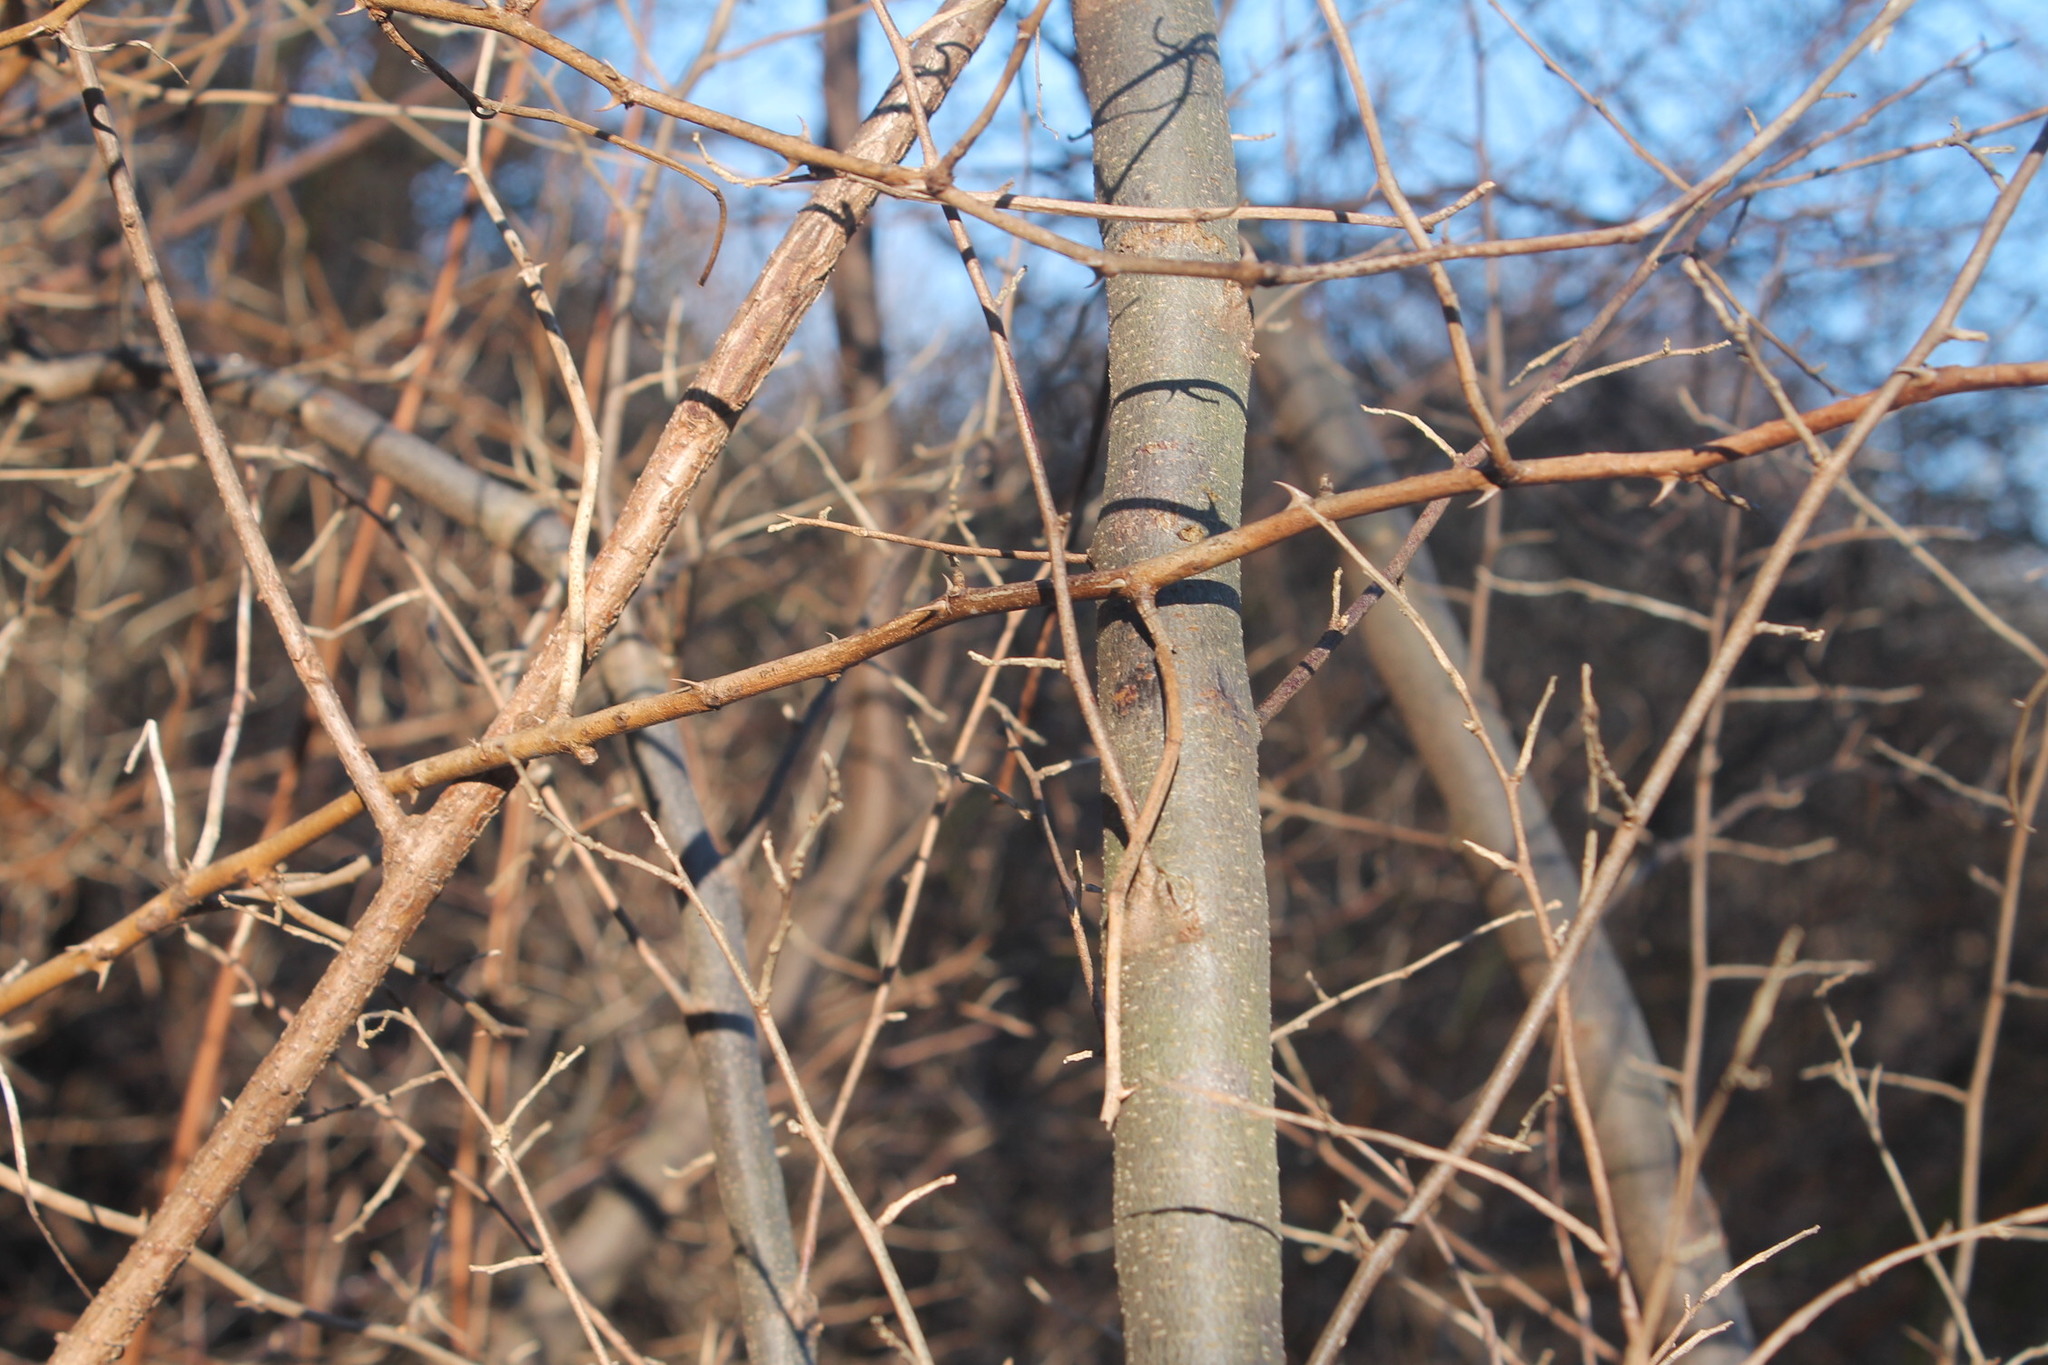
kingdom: Plantae
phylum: Tracheophyta
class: Magnoliopsida
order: Rosales
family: Elaeagnaceae
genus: Elaeagnus
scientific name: Elaeagnus umbellata
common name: Autumn olive
